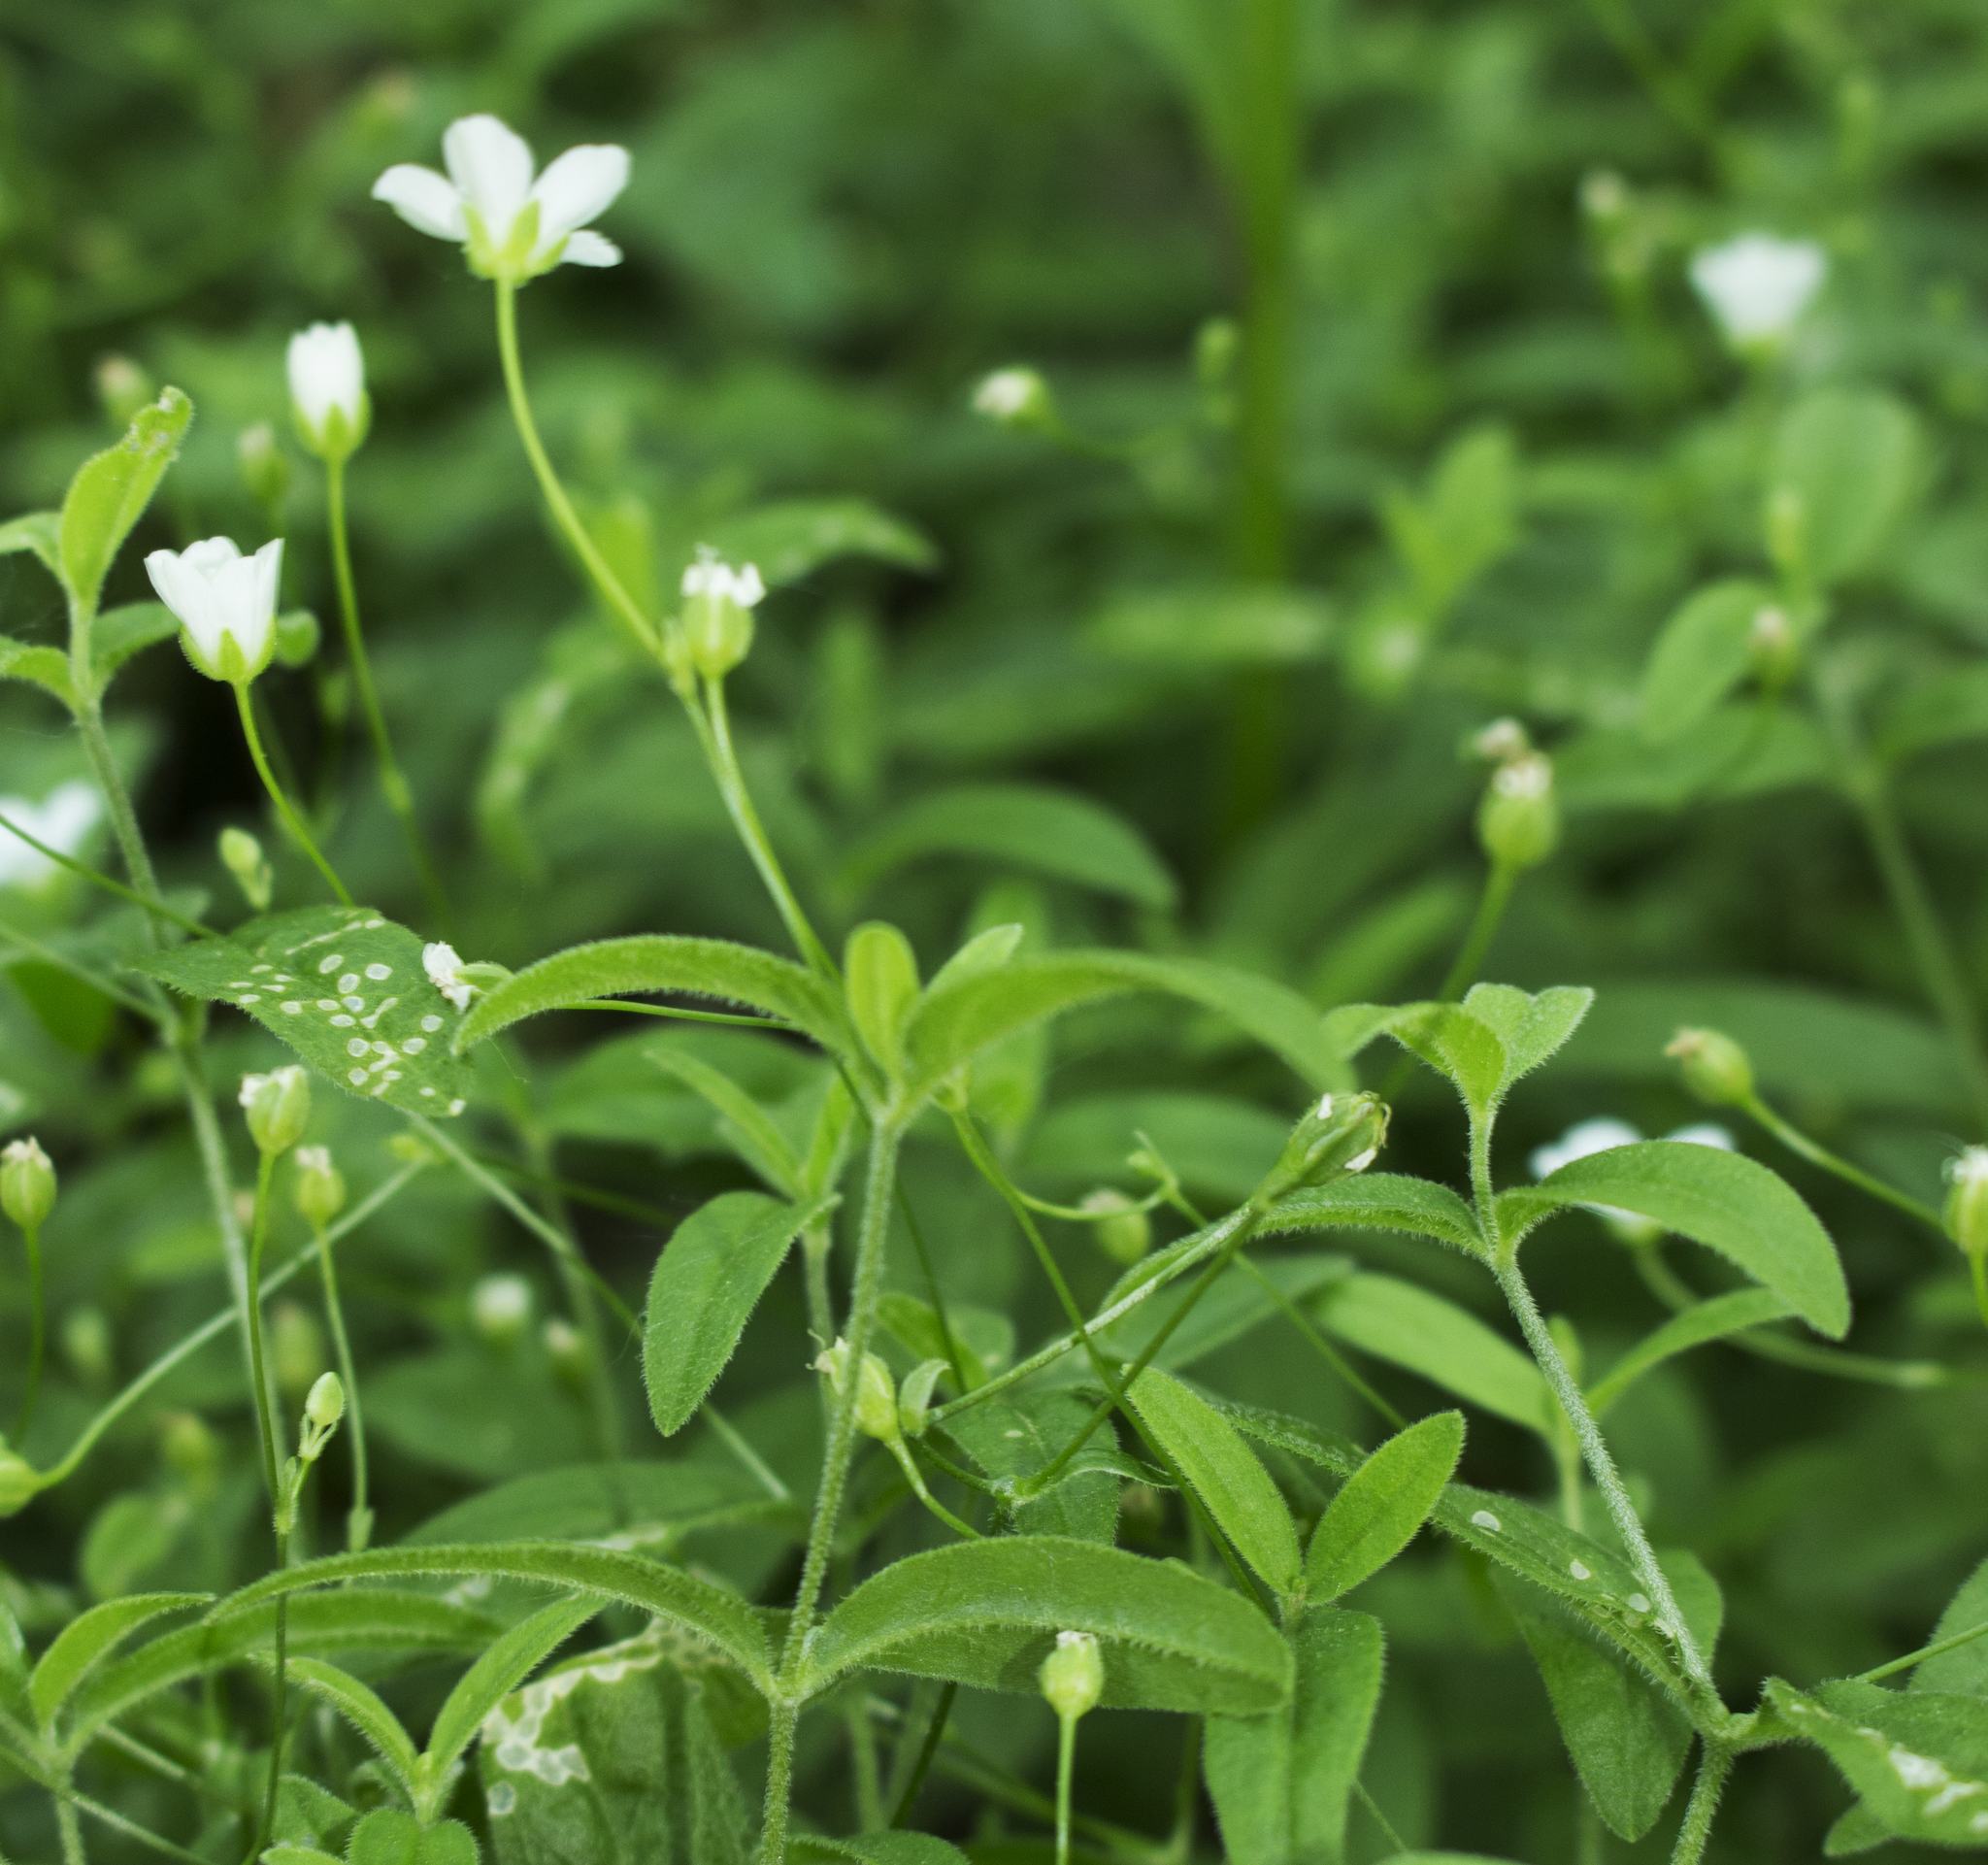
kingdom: Plantae
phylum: Tracheophyta
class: Magnoliopsida
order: Caryophyllales
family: Caryophyllaceae
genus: Moehringia
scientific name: Moehringia lateriflora
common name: Blunt-leaved sandwort
